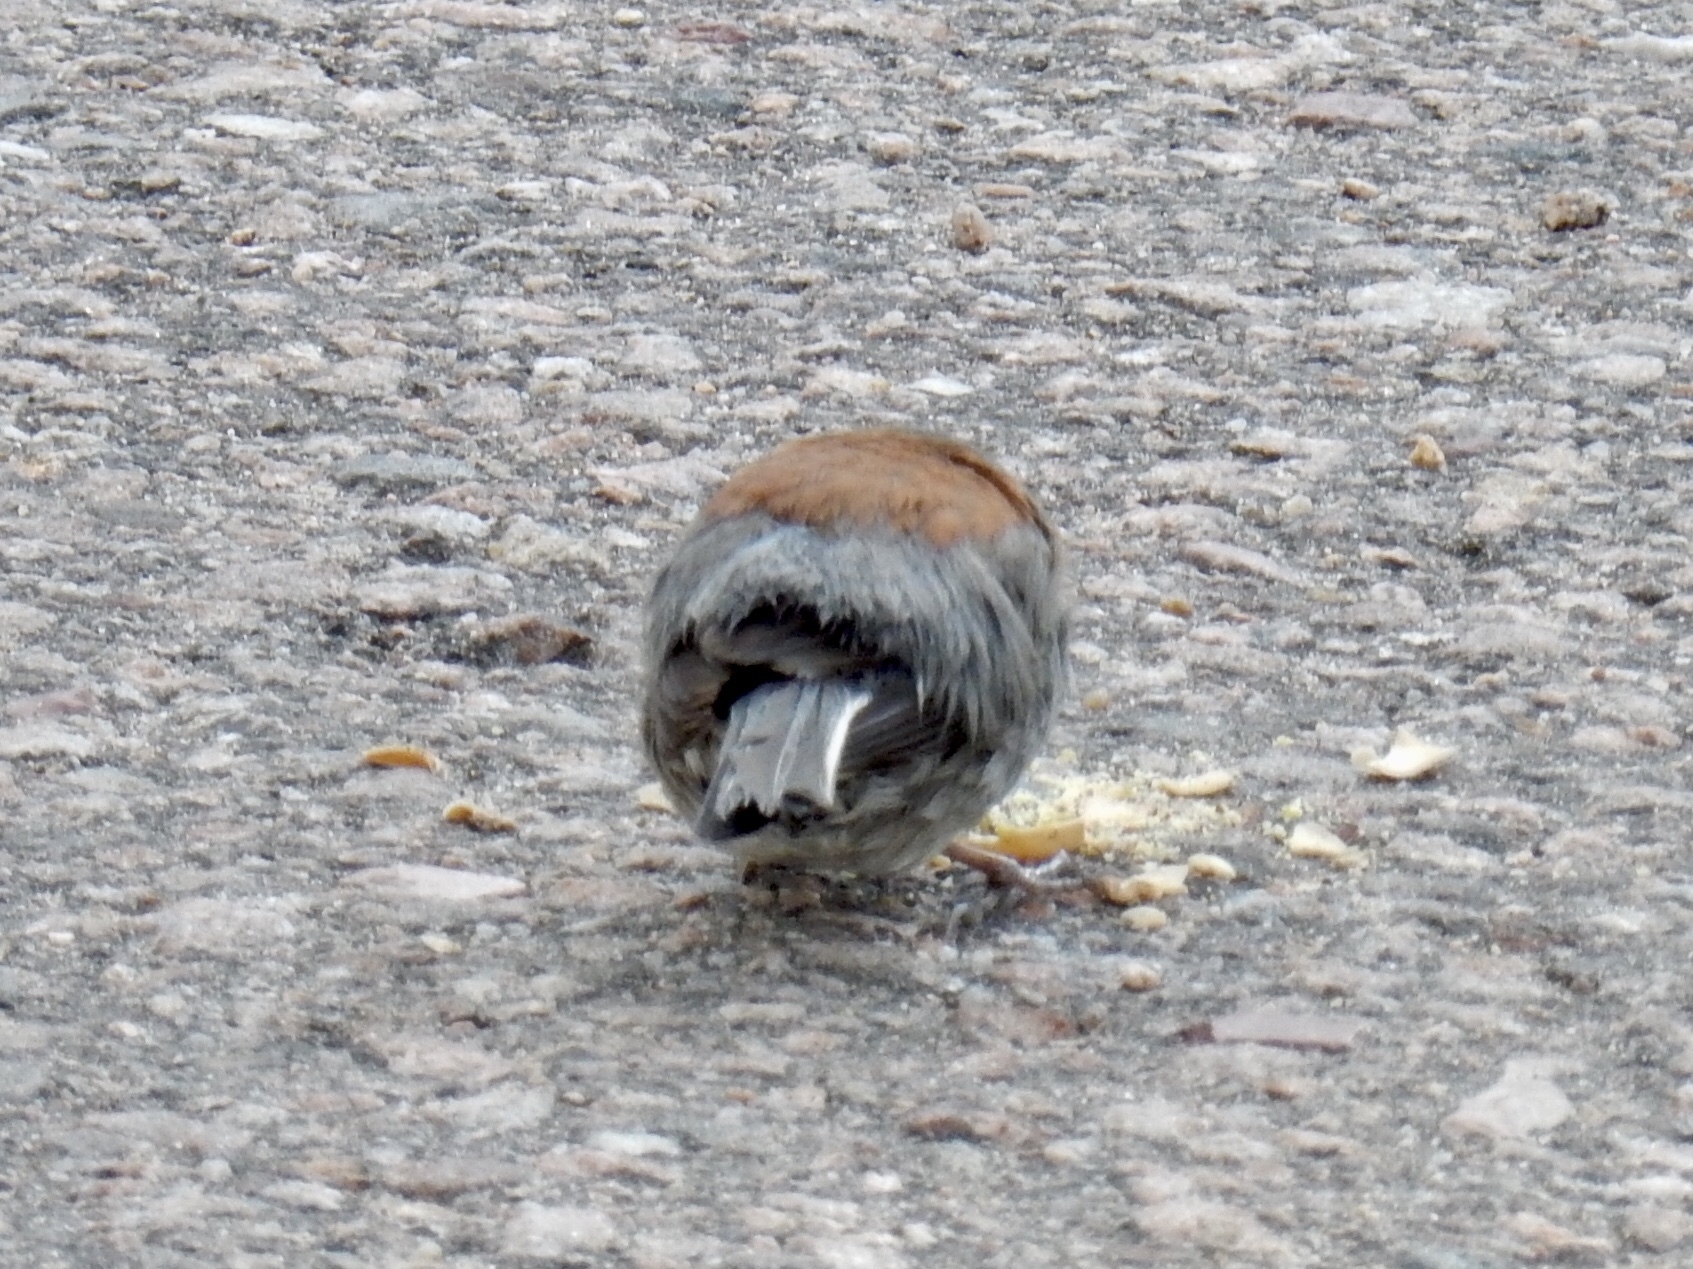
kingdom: Animalia
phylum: Chordata
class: Aves
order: Passeriformes
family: Passerellidae
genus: Junco
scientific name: Junco hyemalis
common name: Dark-eyed junco
